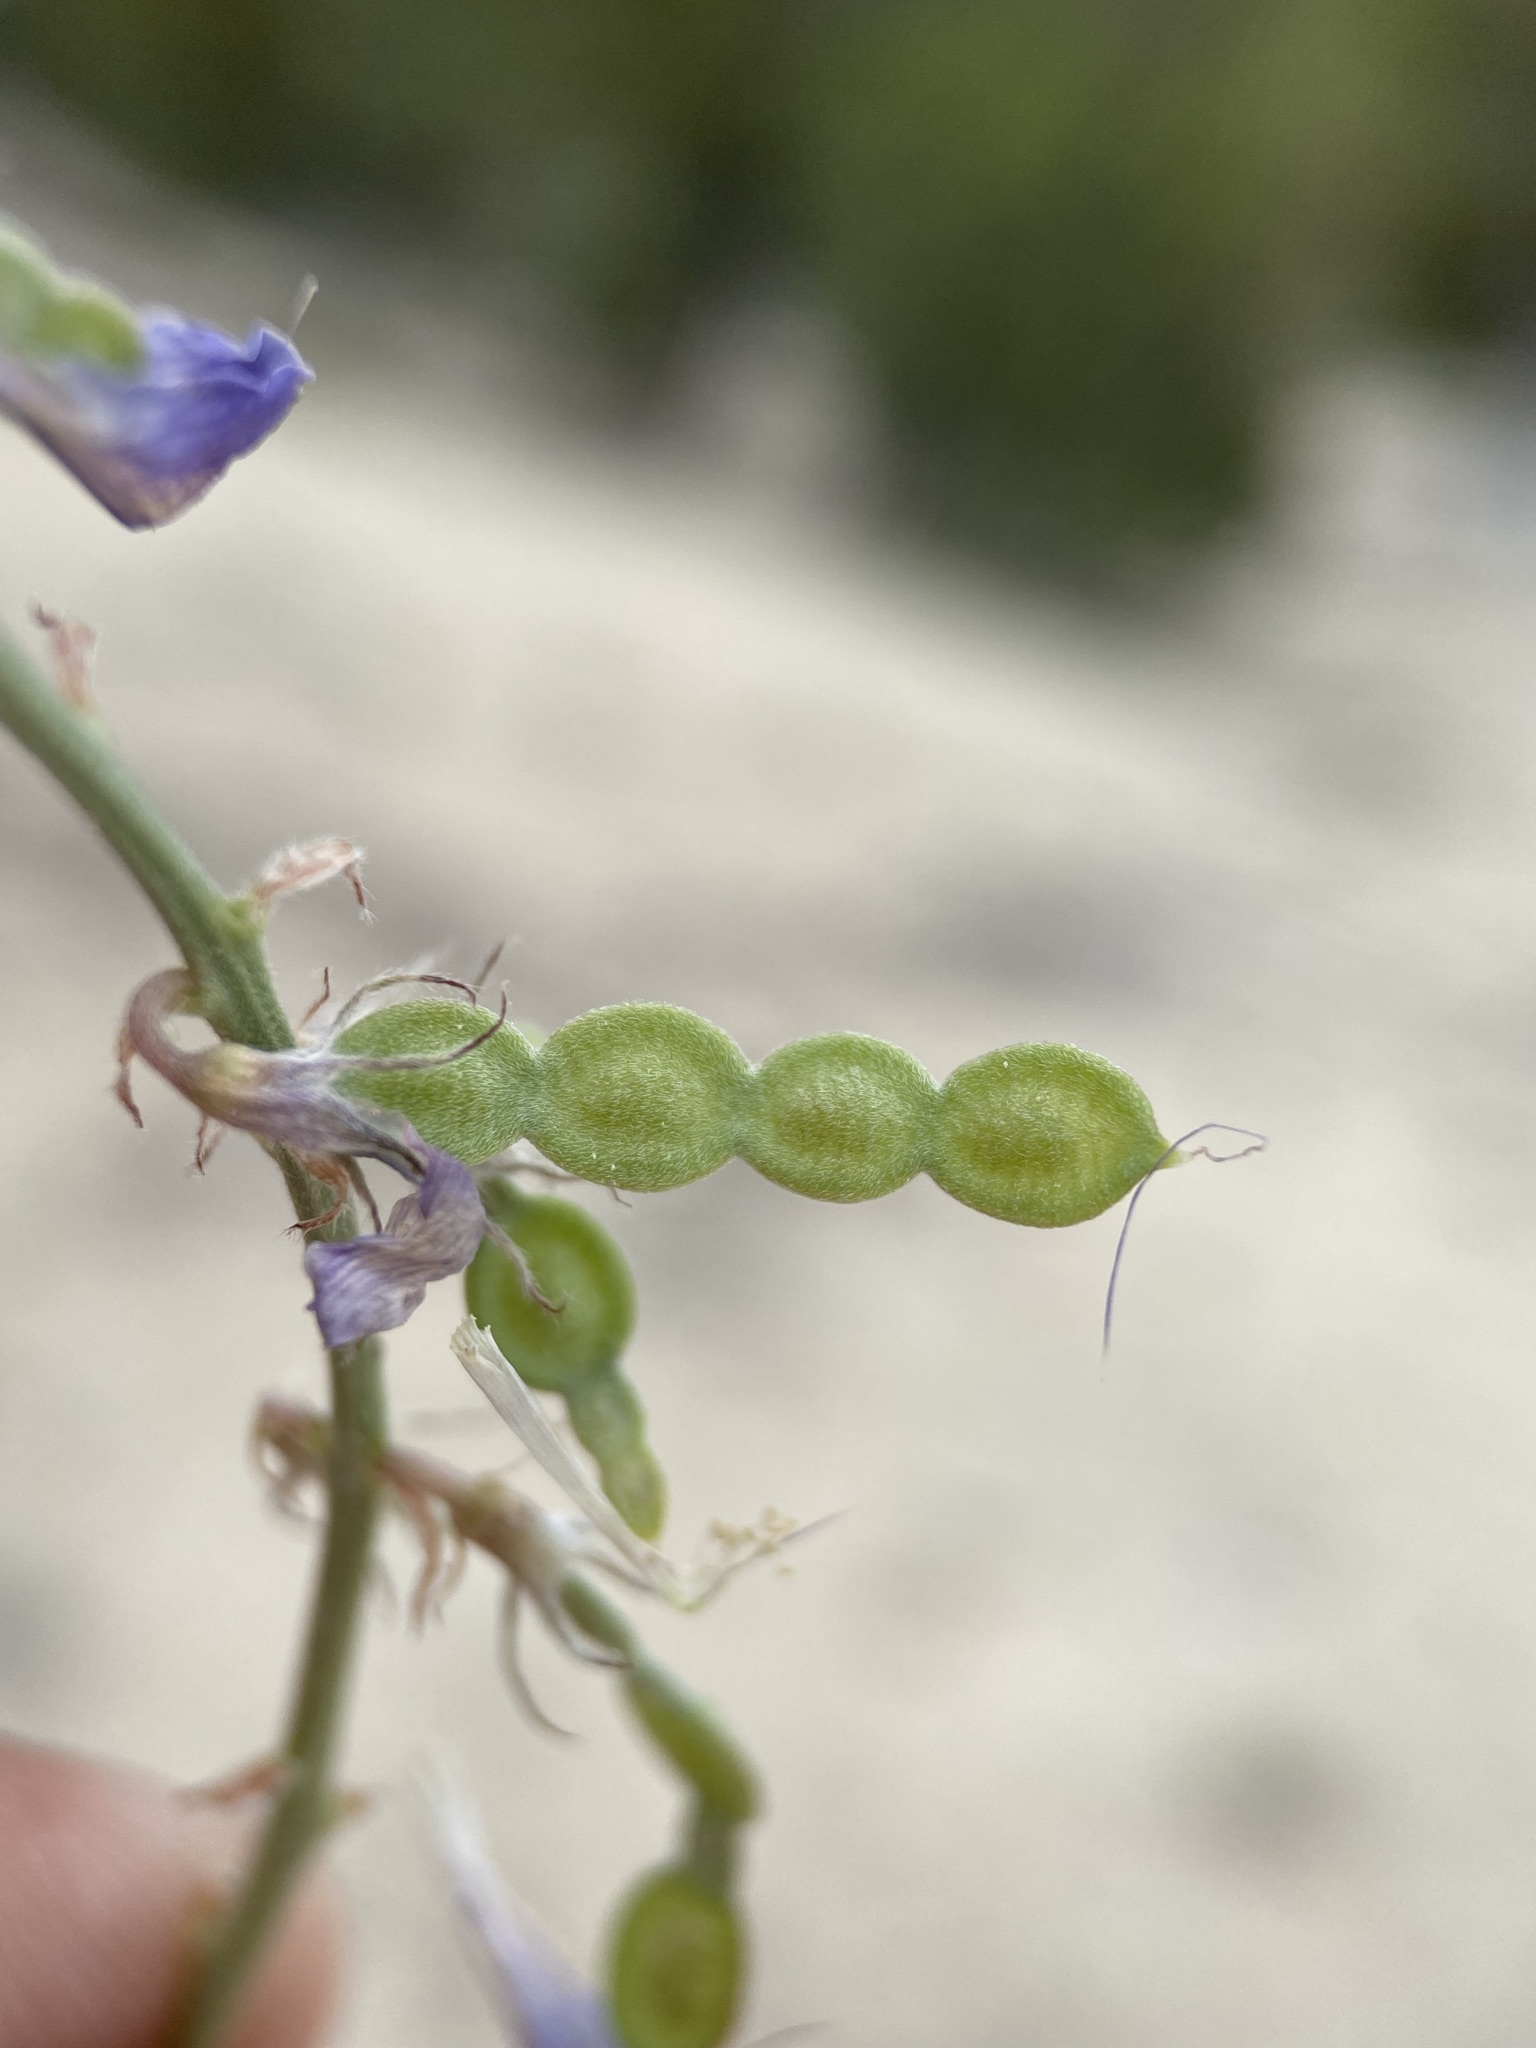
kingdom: Plantae
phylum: Tracheophyta
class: Magnoliopsida
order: Fabales
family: Fabaceae
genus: Hedysarum
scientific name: Hedysarum boreale
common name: Northern sweet-vetch
